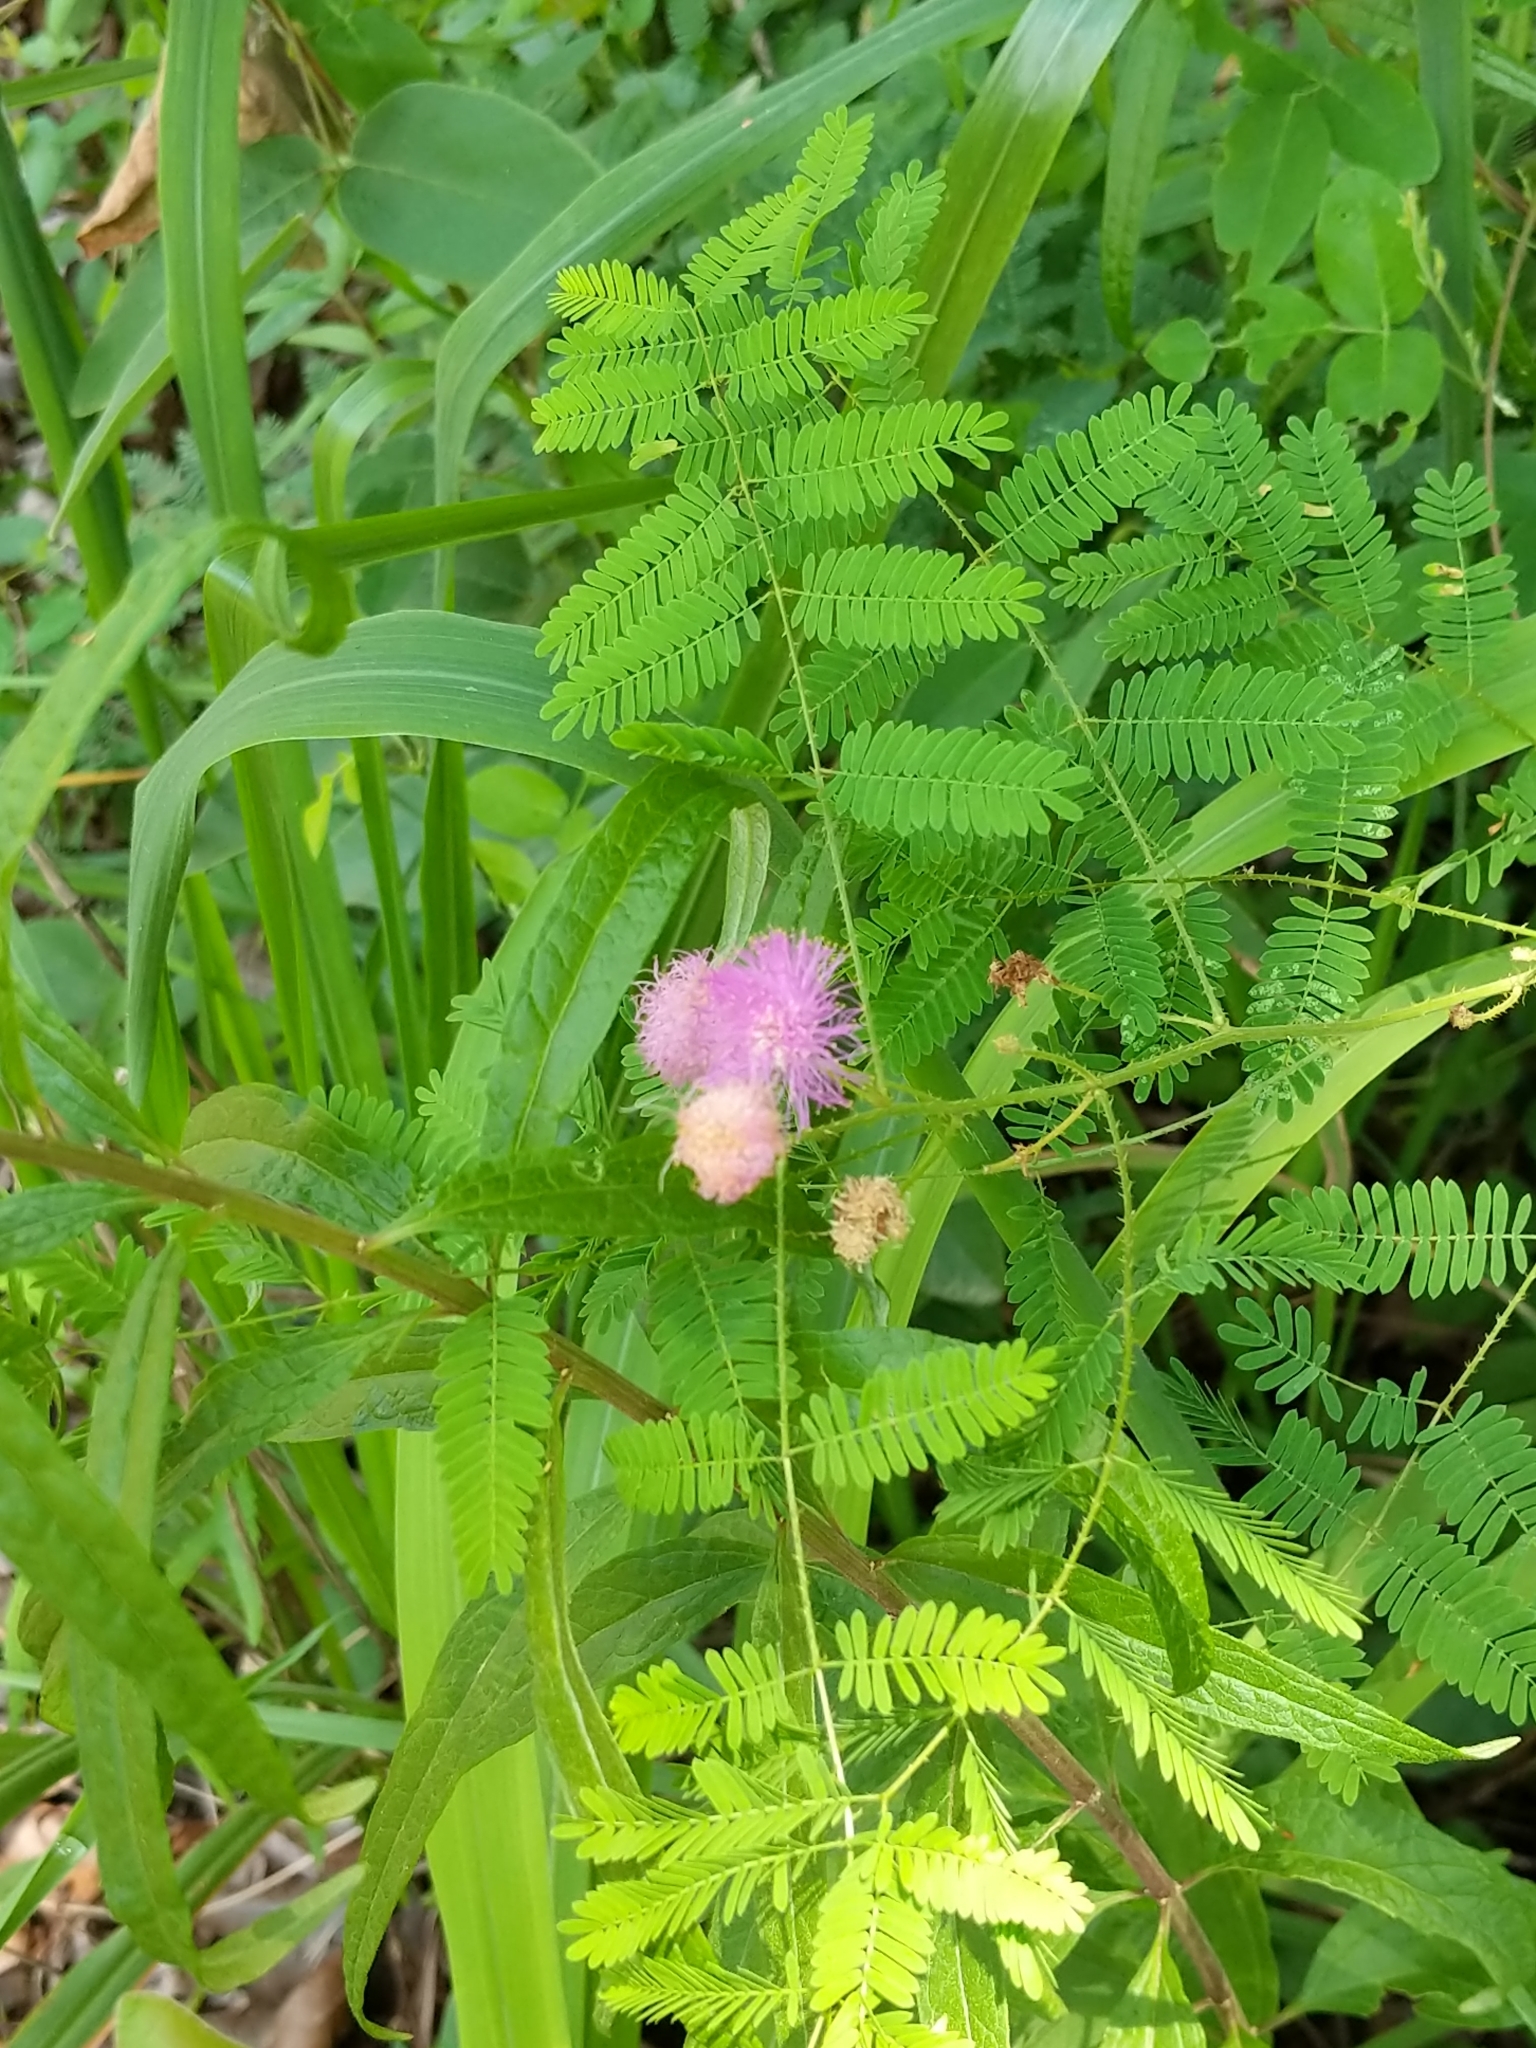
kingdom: Plantae
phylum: Tracheophyta
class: Magnoliopsida
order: Fabales
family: Fabaceae
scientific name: Fabaceae
